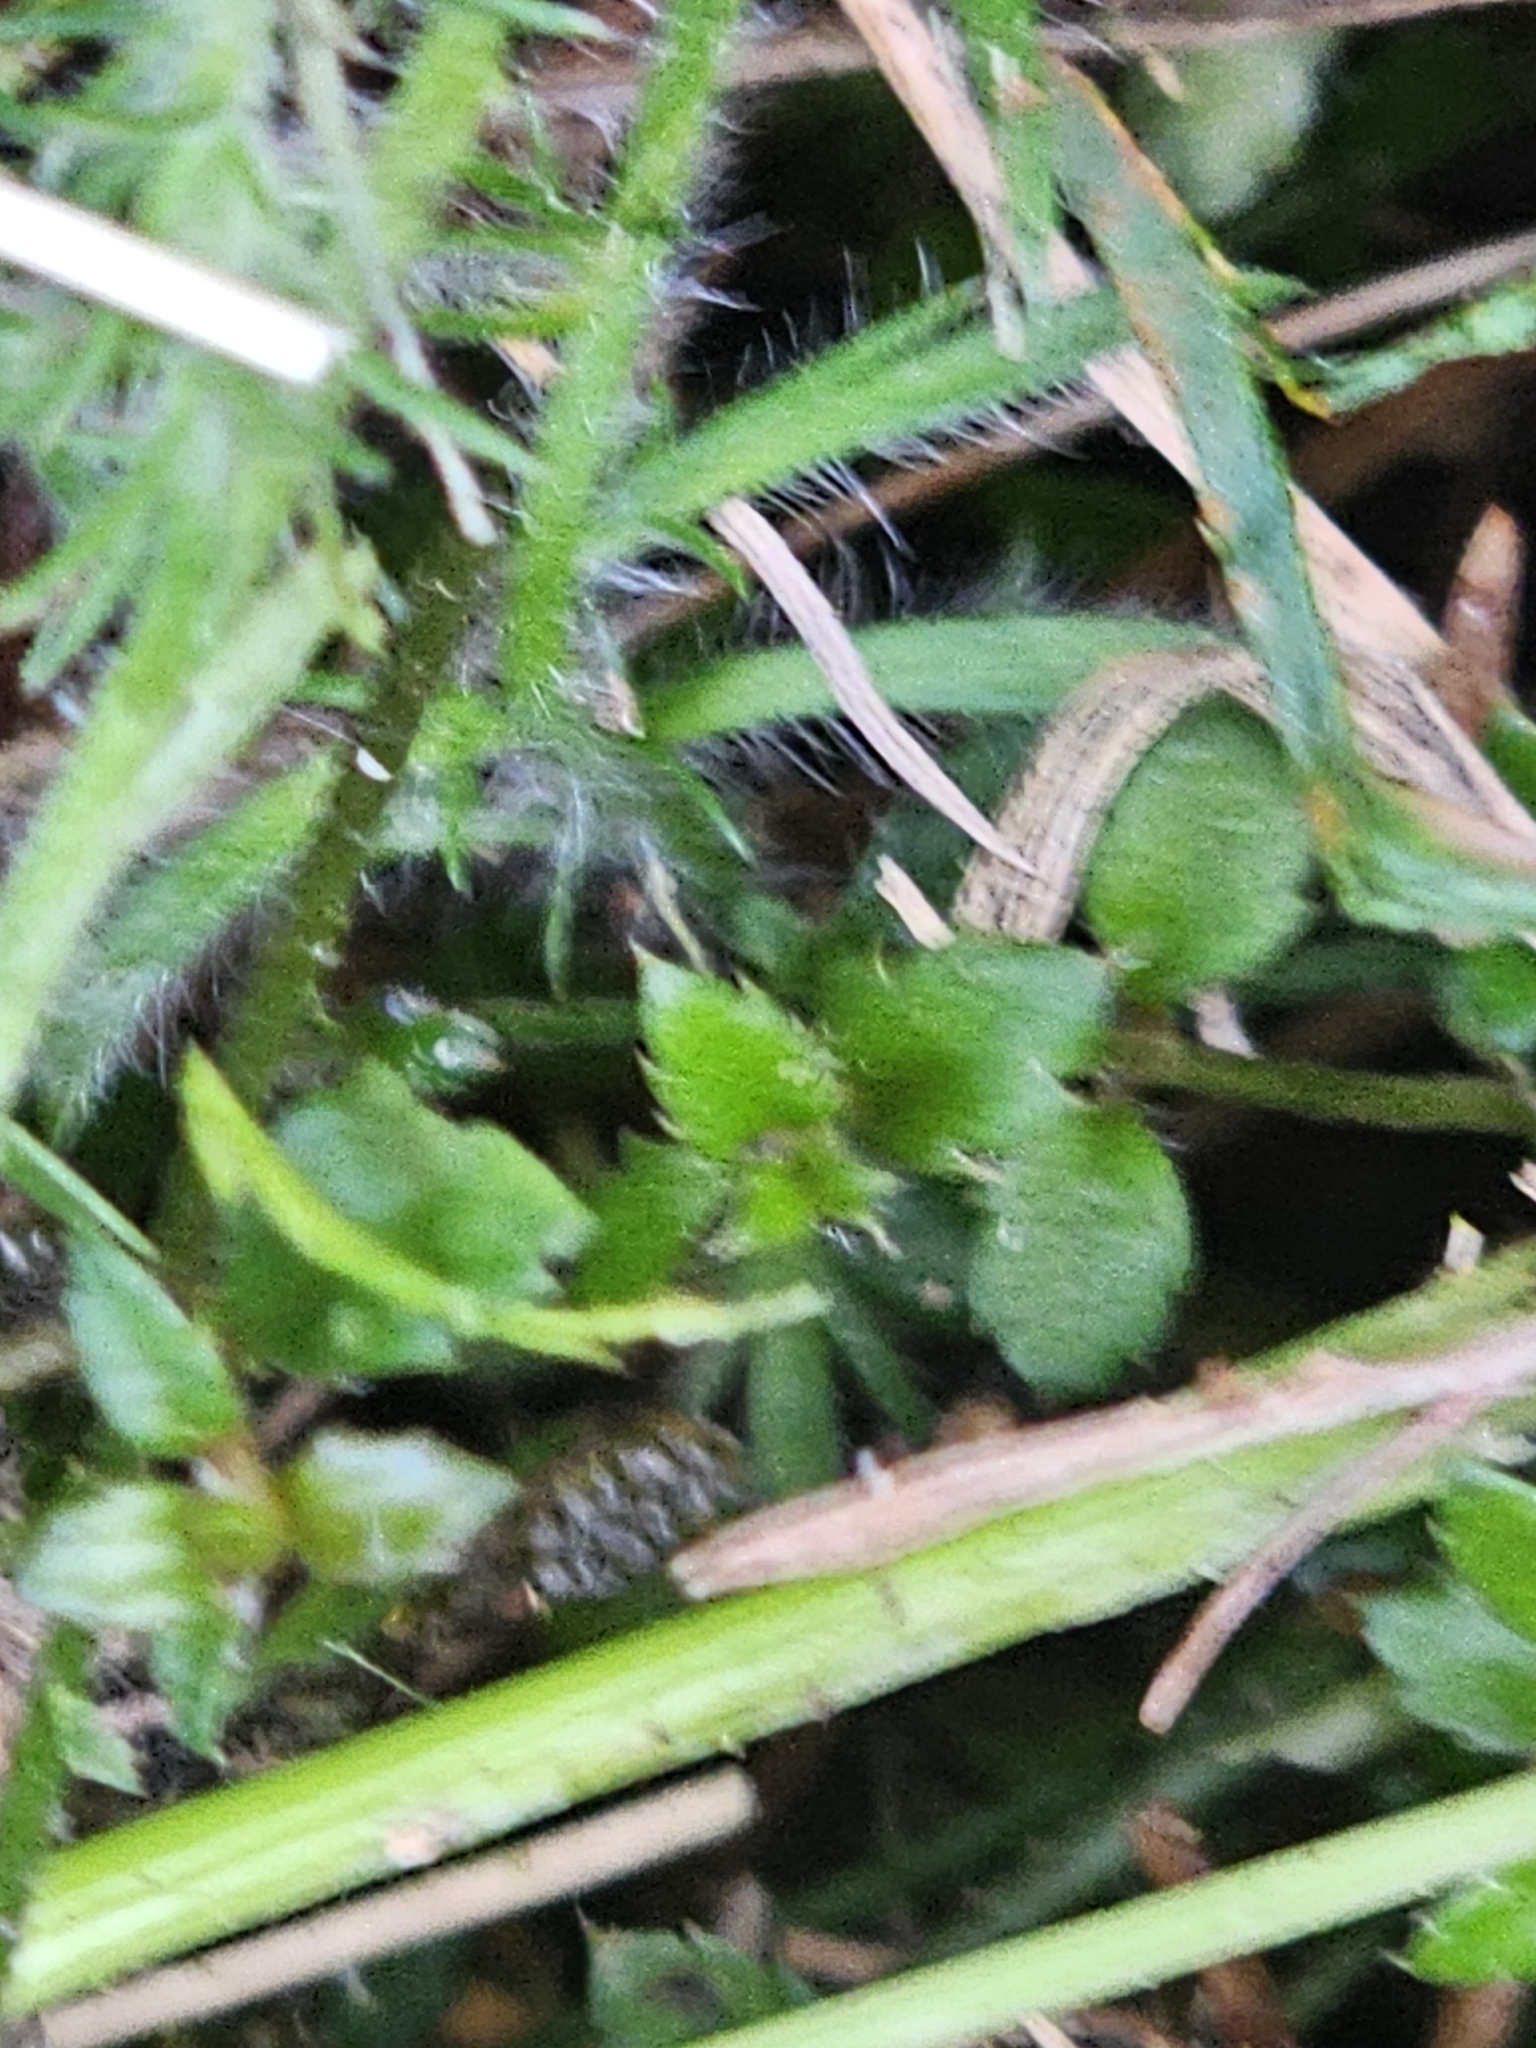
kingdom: Plantae
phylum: Tracheophyta
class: Magnoliopsida
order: Saxifragales
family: Haloragaceae
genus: Gonocarpus
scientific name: Gonocarpus incanus
